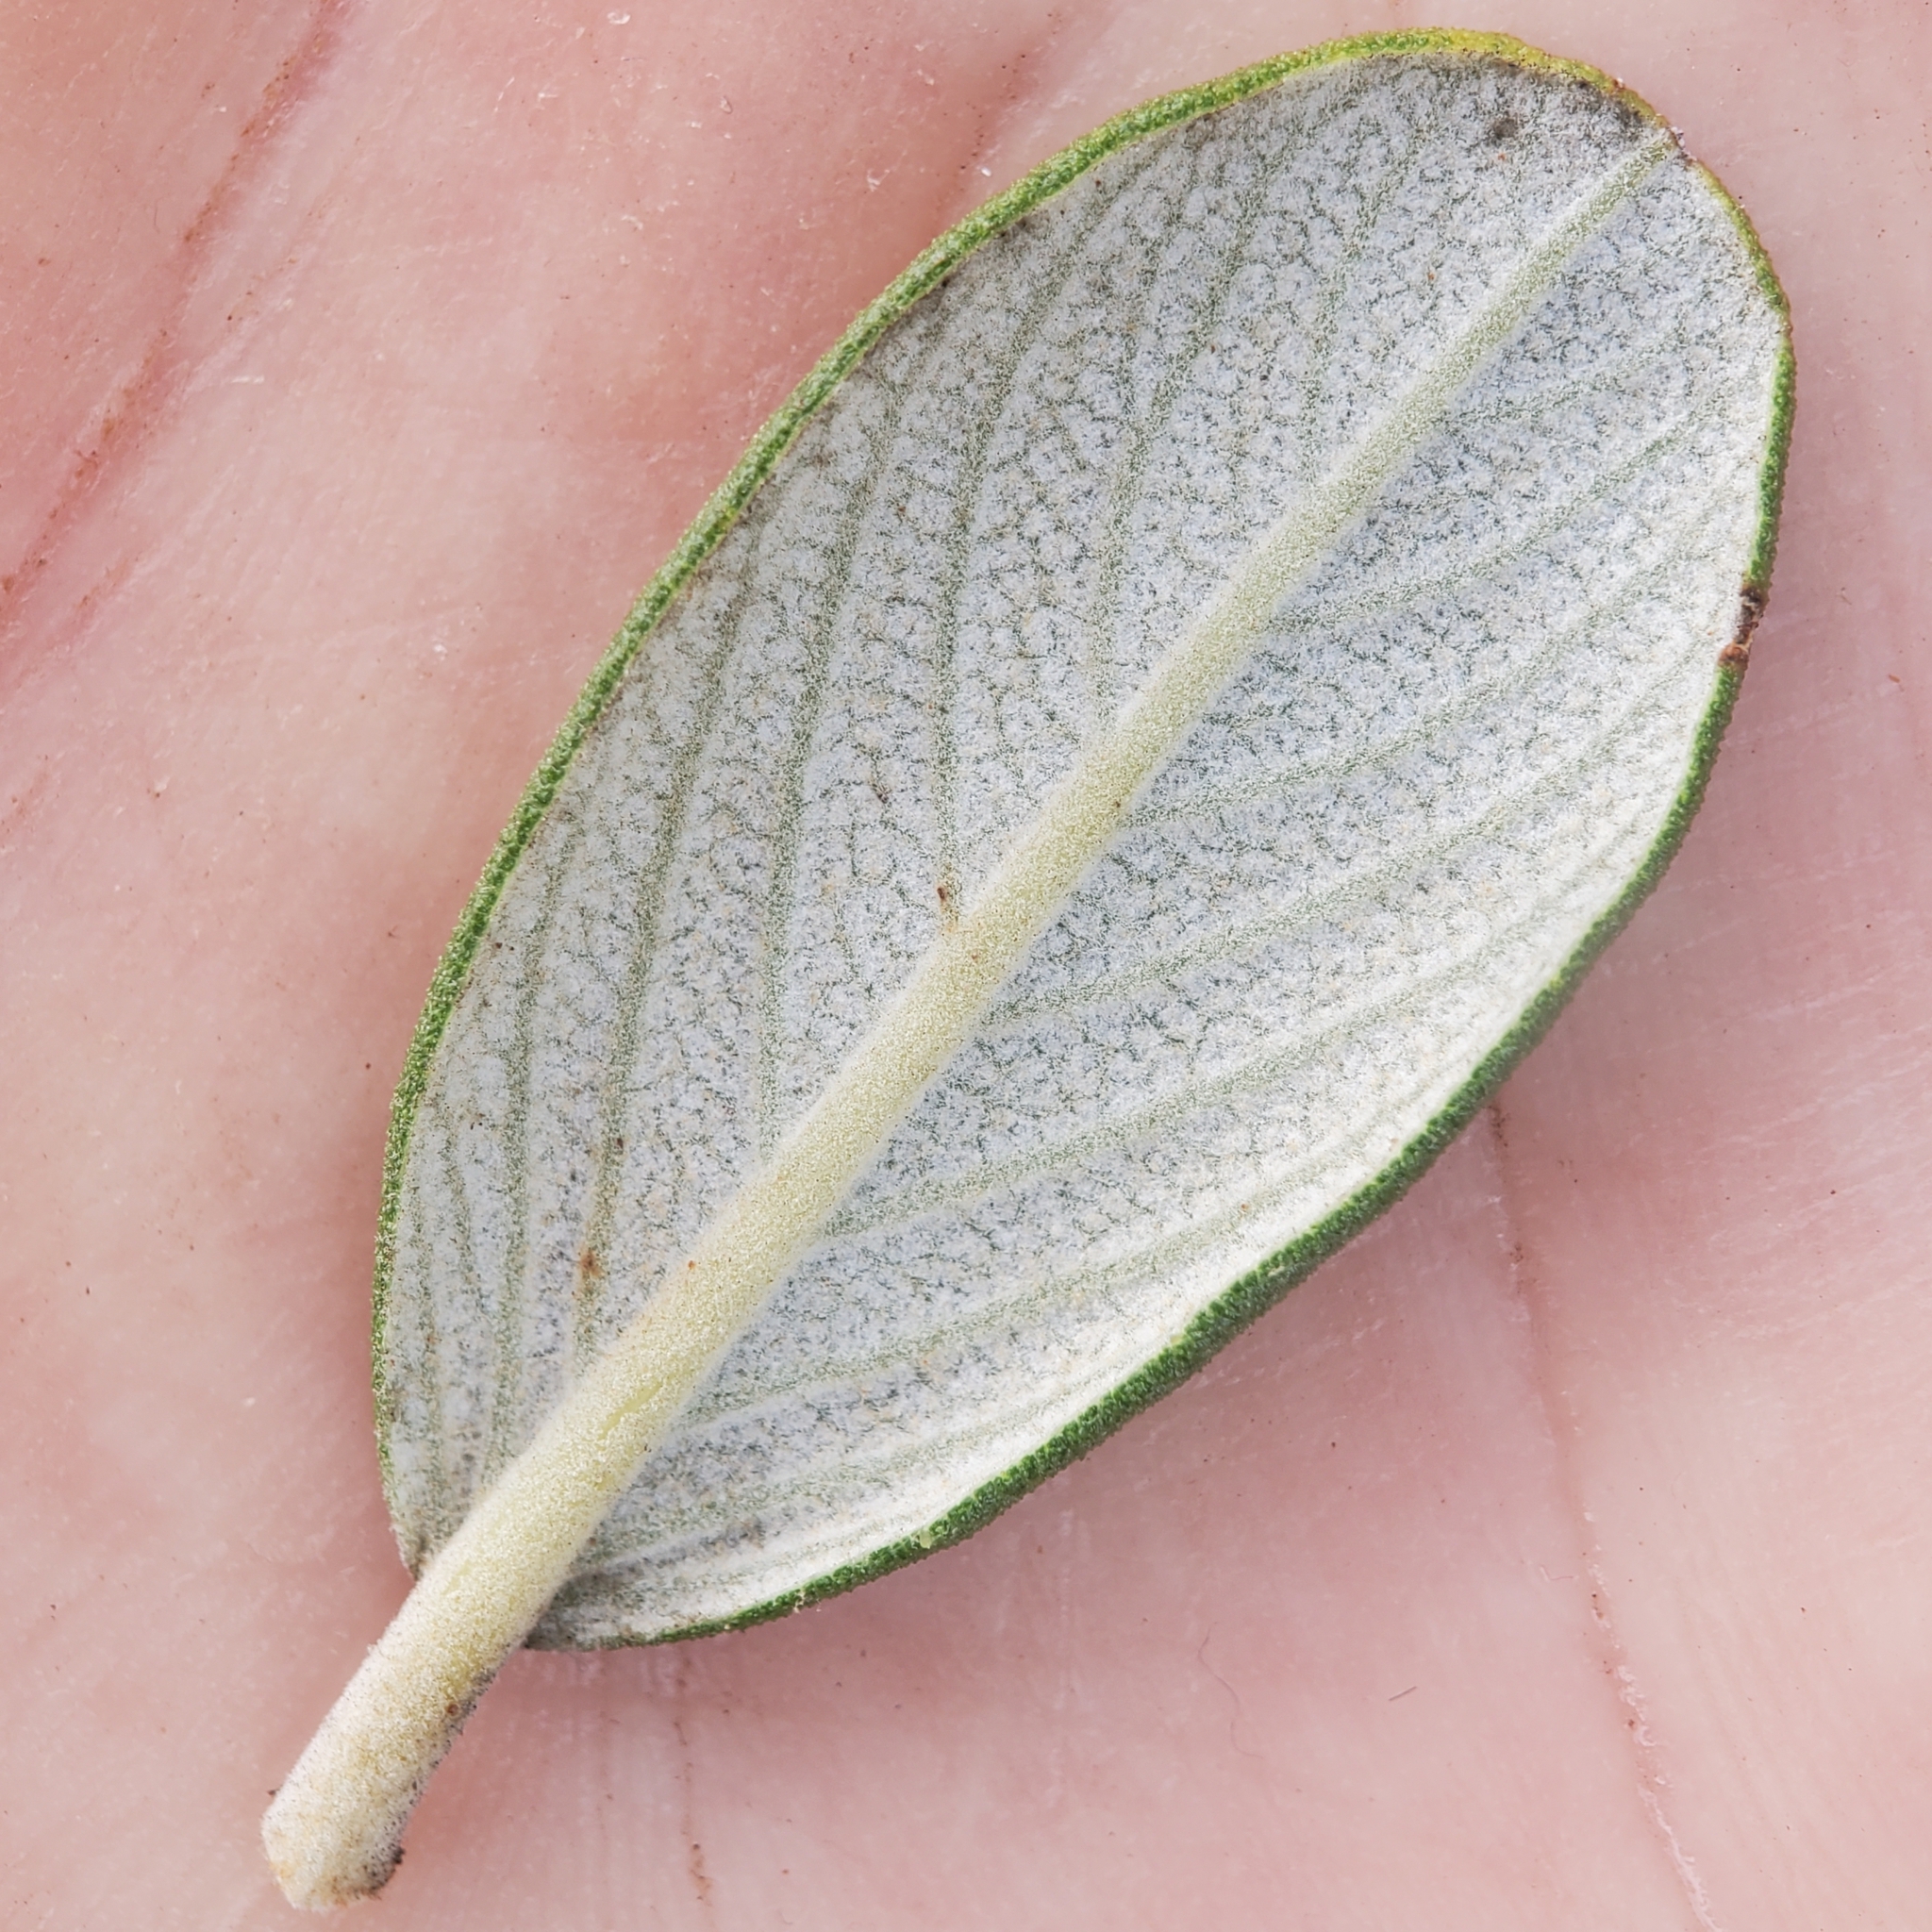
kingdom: Plantae
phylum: Tracheophyta
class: Magnoliopsida
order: Rosales
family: Rhamnaceae
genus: Ceanothus
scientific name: Ceanothus crassifolius
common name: Hoaryleaf ceanothus
